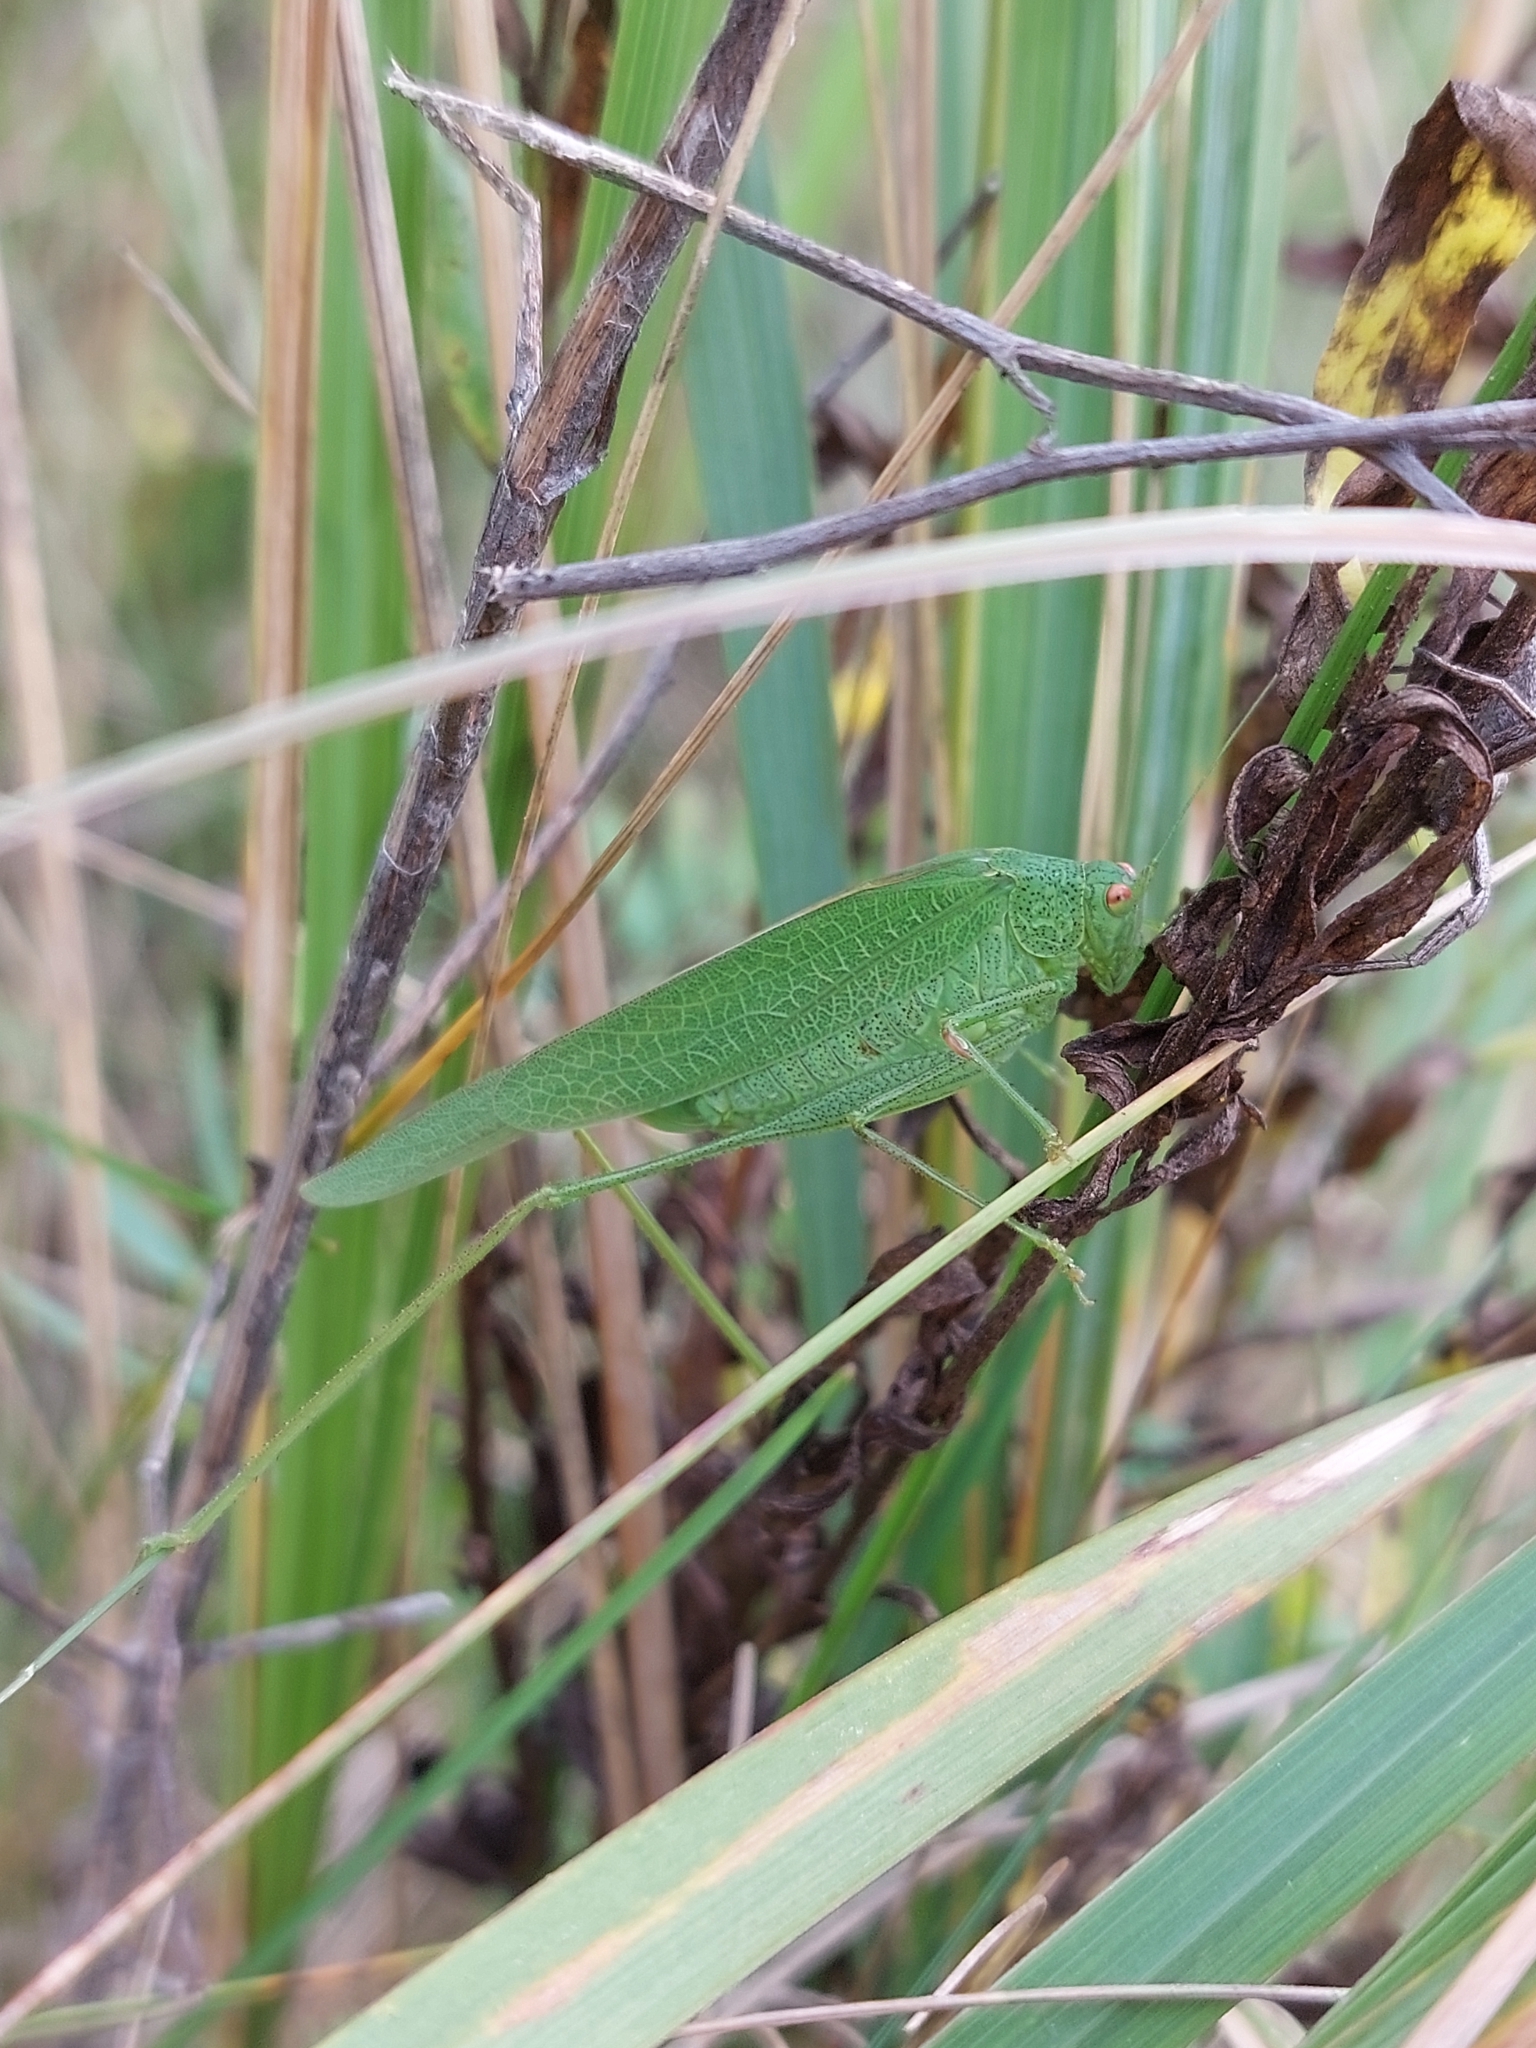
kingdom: Animalia
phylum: Arthropoda
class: Insecta
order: Orthoptera
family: Tettigoniidae
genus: Phaneroptera
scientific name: Phaneroptera nana
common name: Southern sickle bush-cricket
